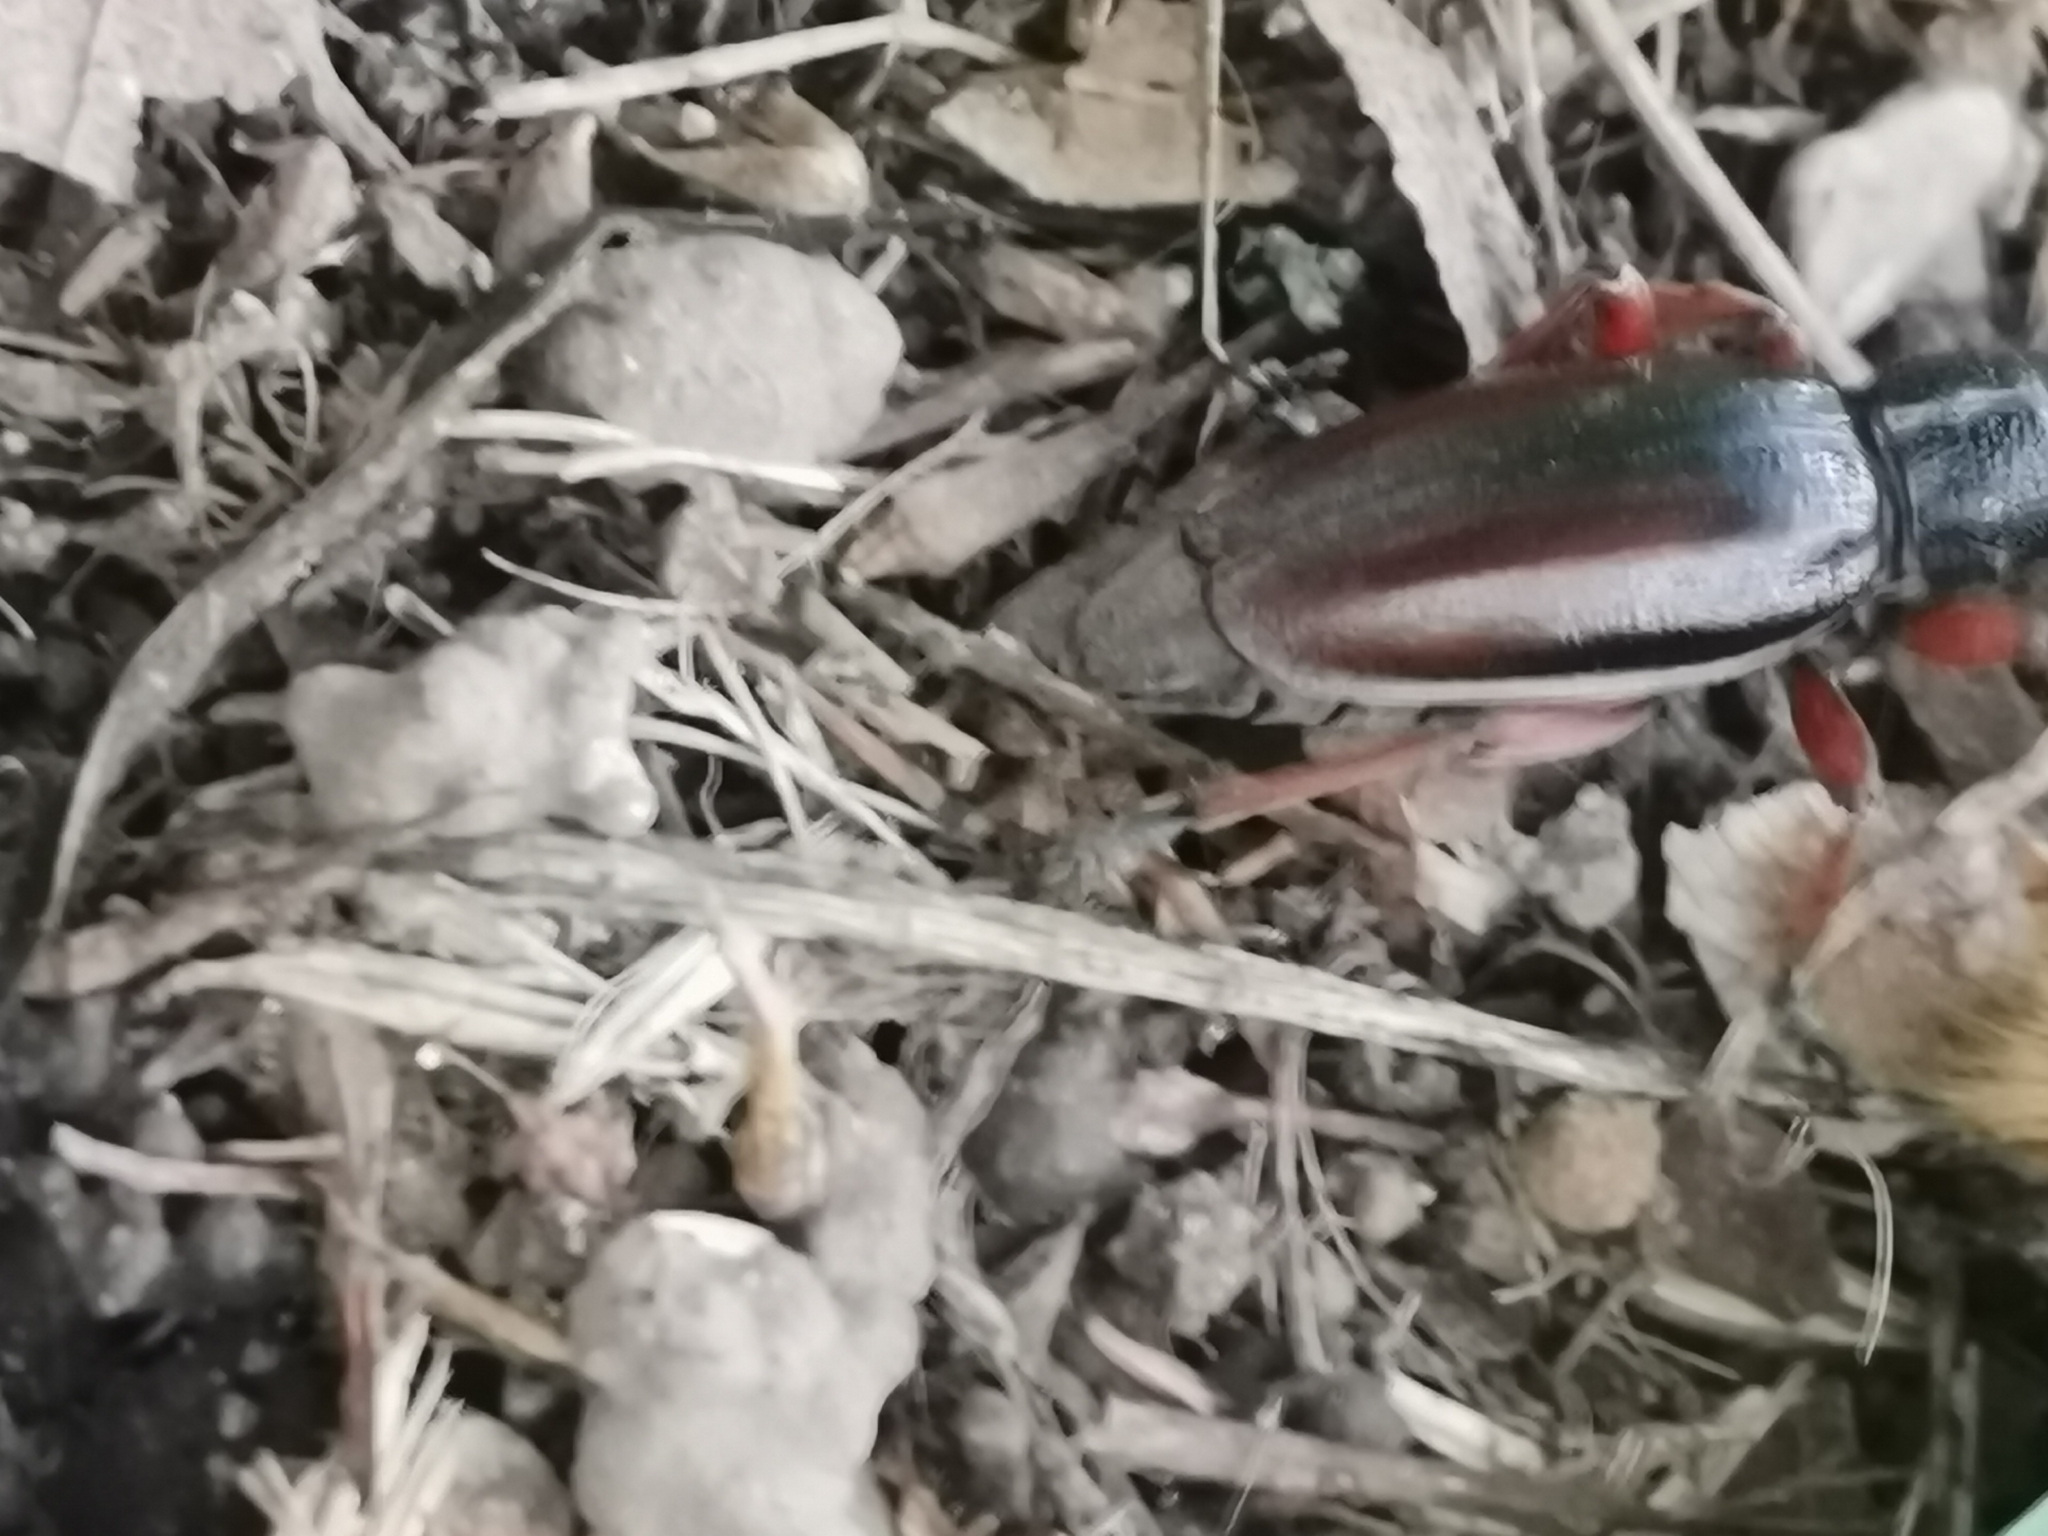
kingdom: Animalia
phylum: Arthropoda
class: Insecta
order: Coleoptera
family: Cerambycidae
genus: Dorcadion
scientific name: Dorcadion fulvum
